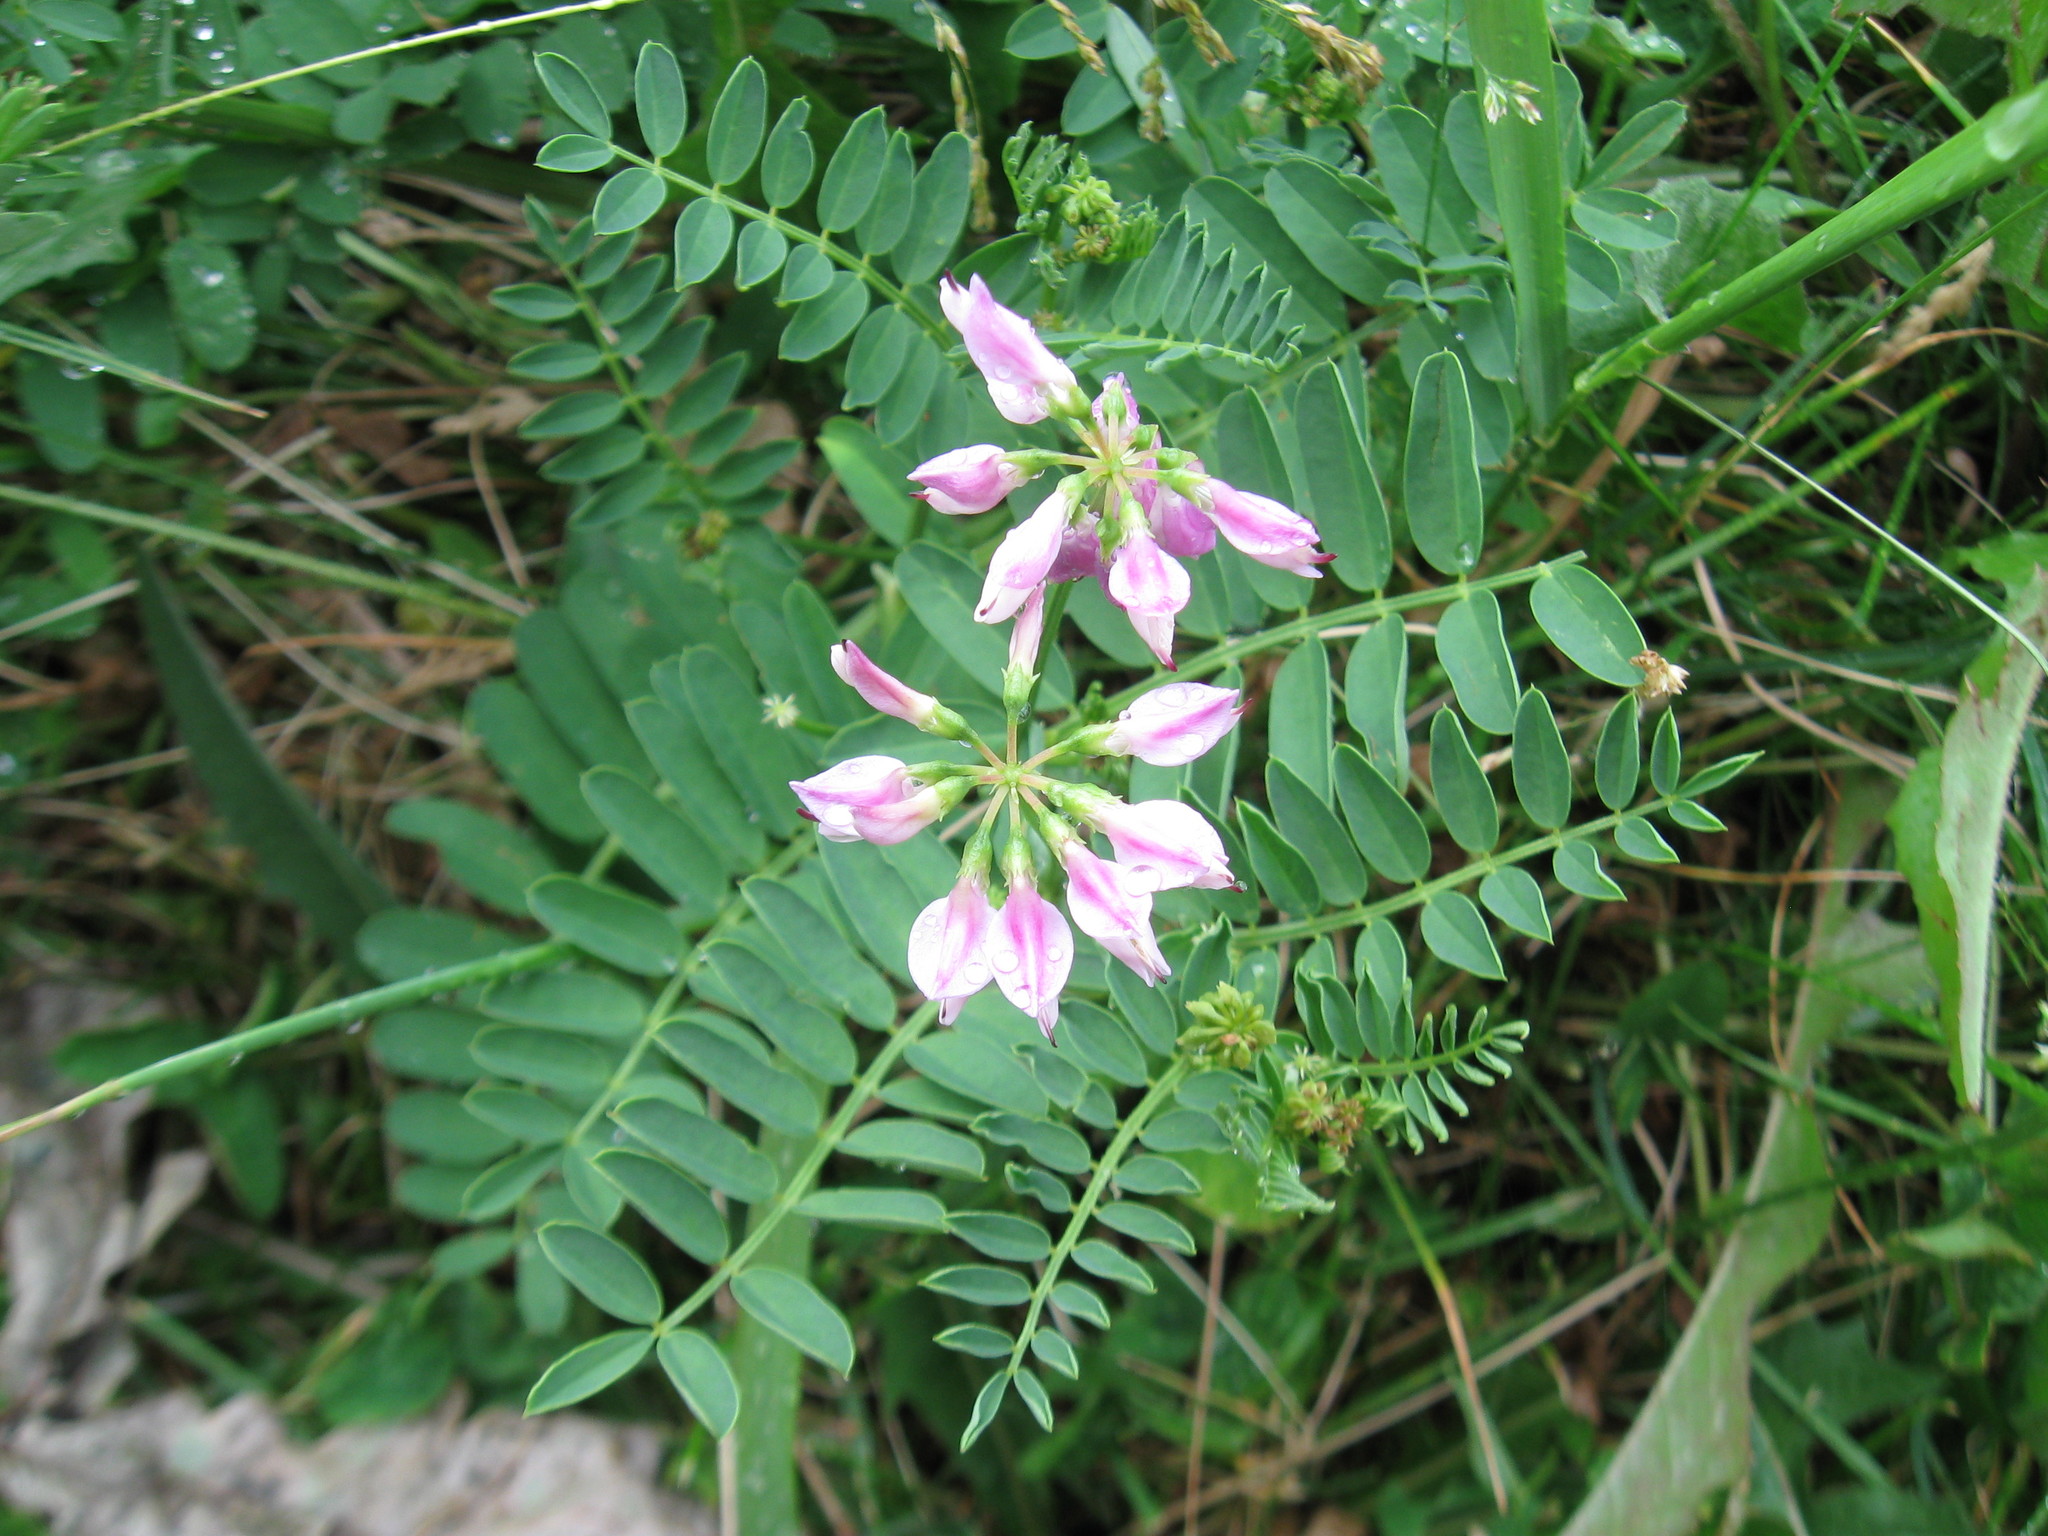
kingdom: Plantae
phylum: Tracheophyta
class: Magnoliopsida
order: Fabales
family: Fabaceae
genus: Coronilla
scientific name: Coronilla varia
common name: Crownvetch
